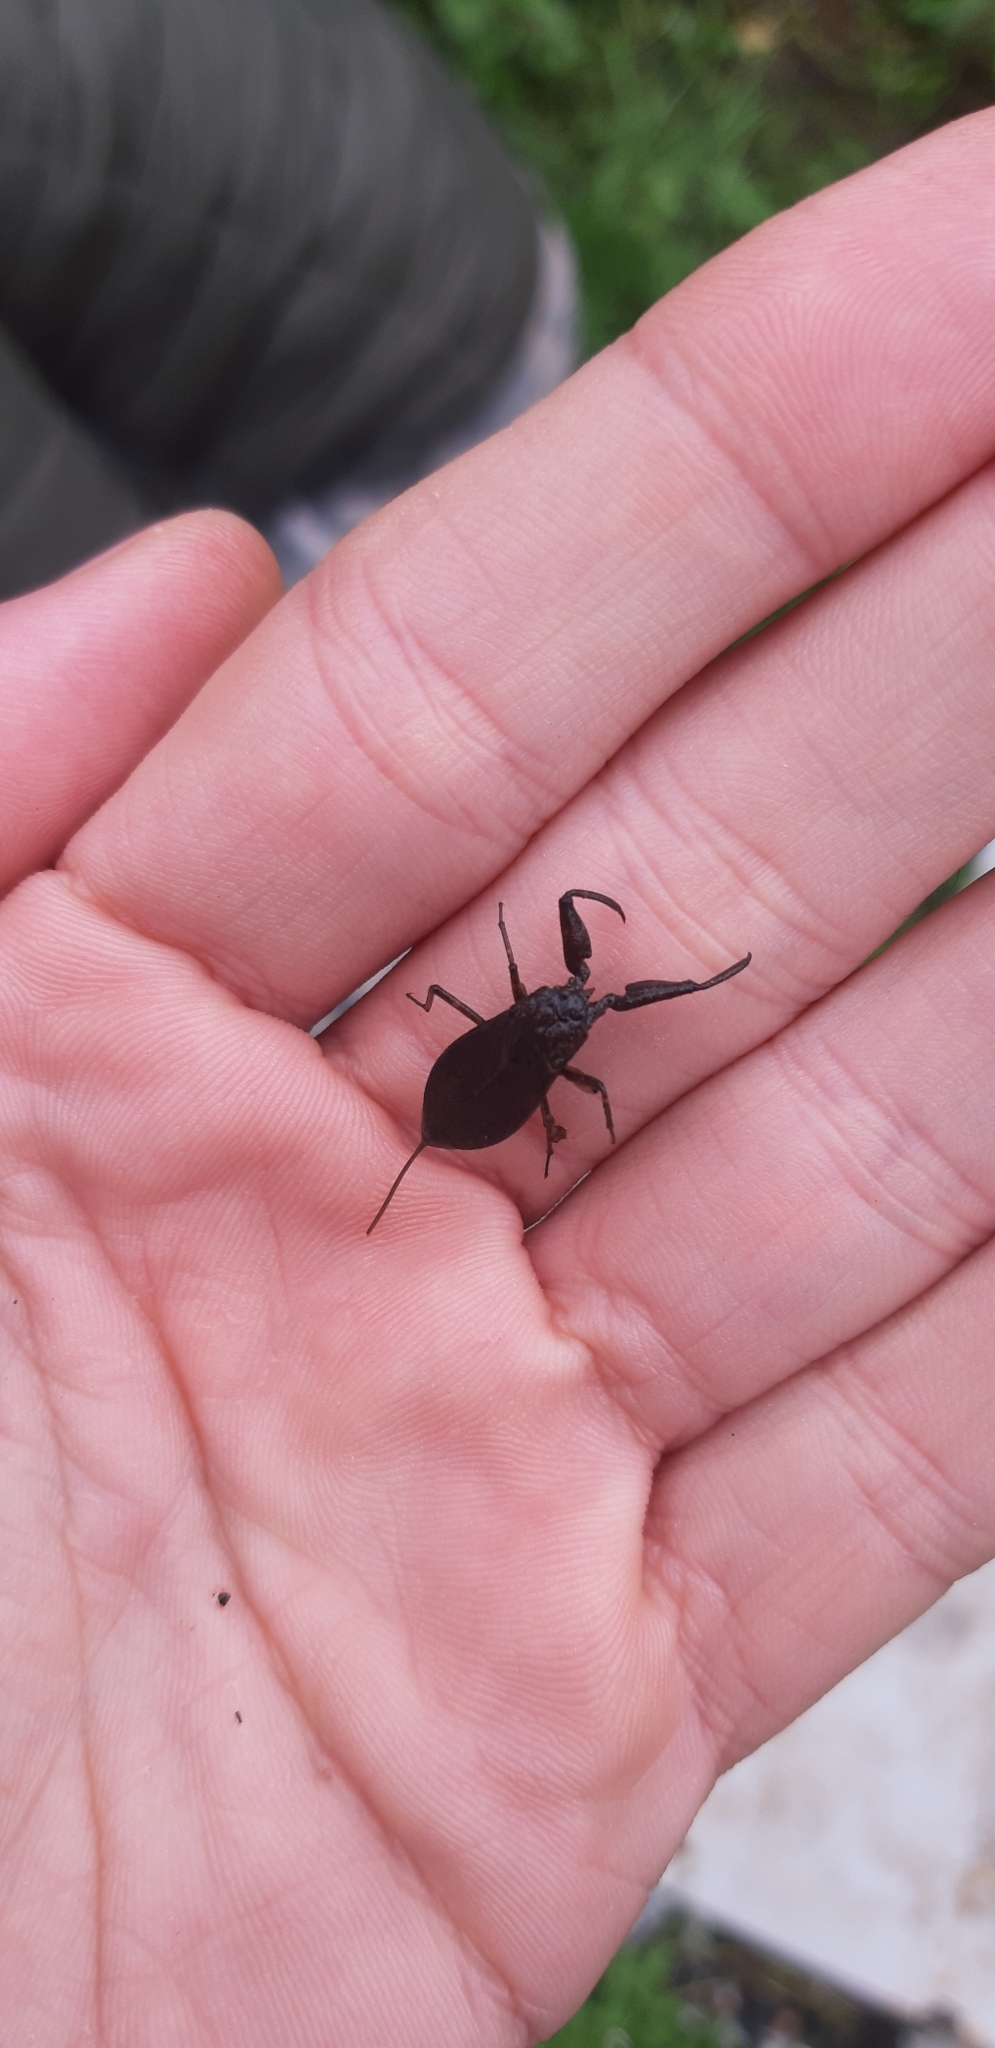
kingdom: Animalia
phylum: Arthropoda
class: Insecta
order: Hemiptera
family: Nepidae
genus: Nepa
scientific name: Nepa cinerea
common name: Water scorpion
